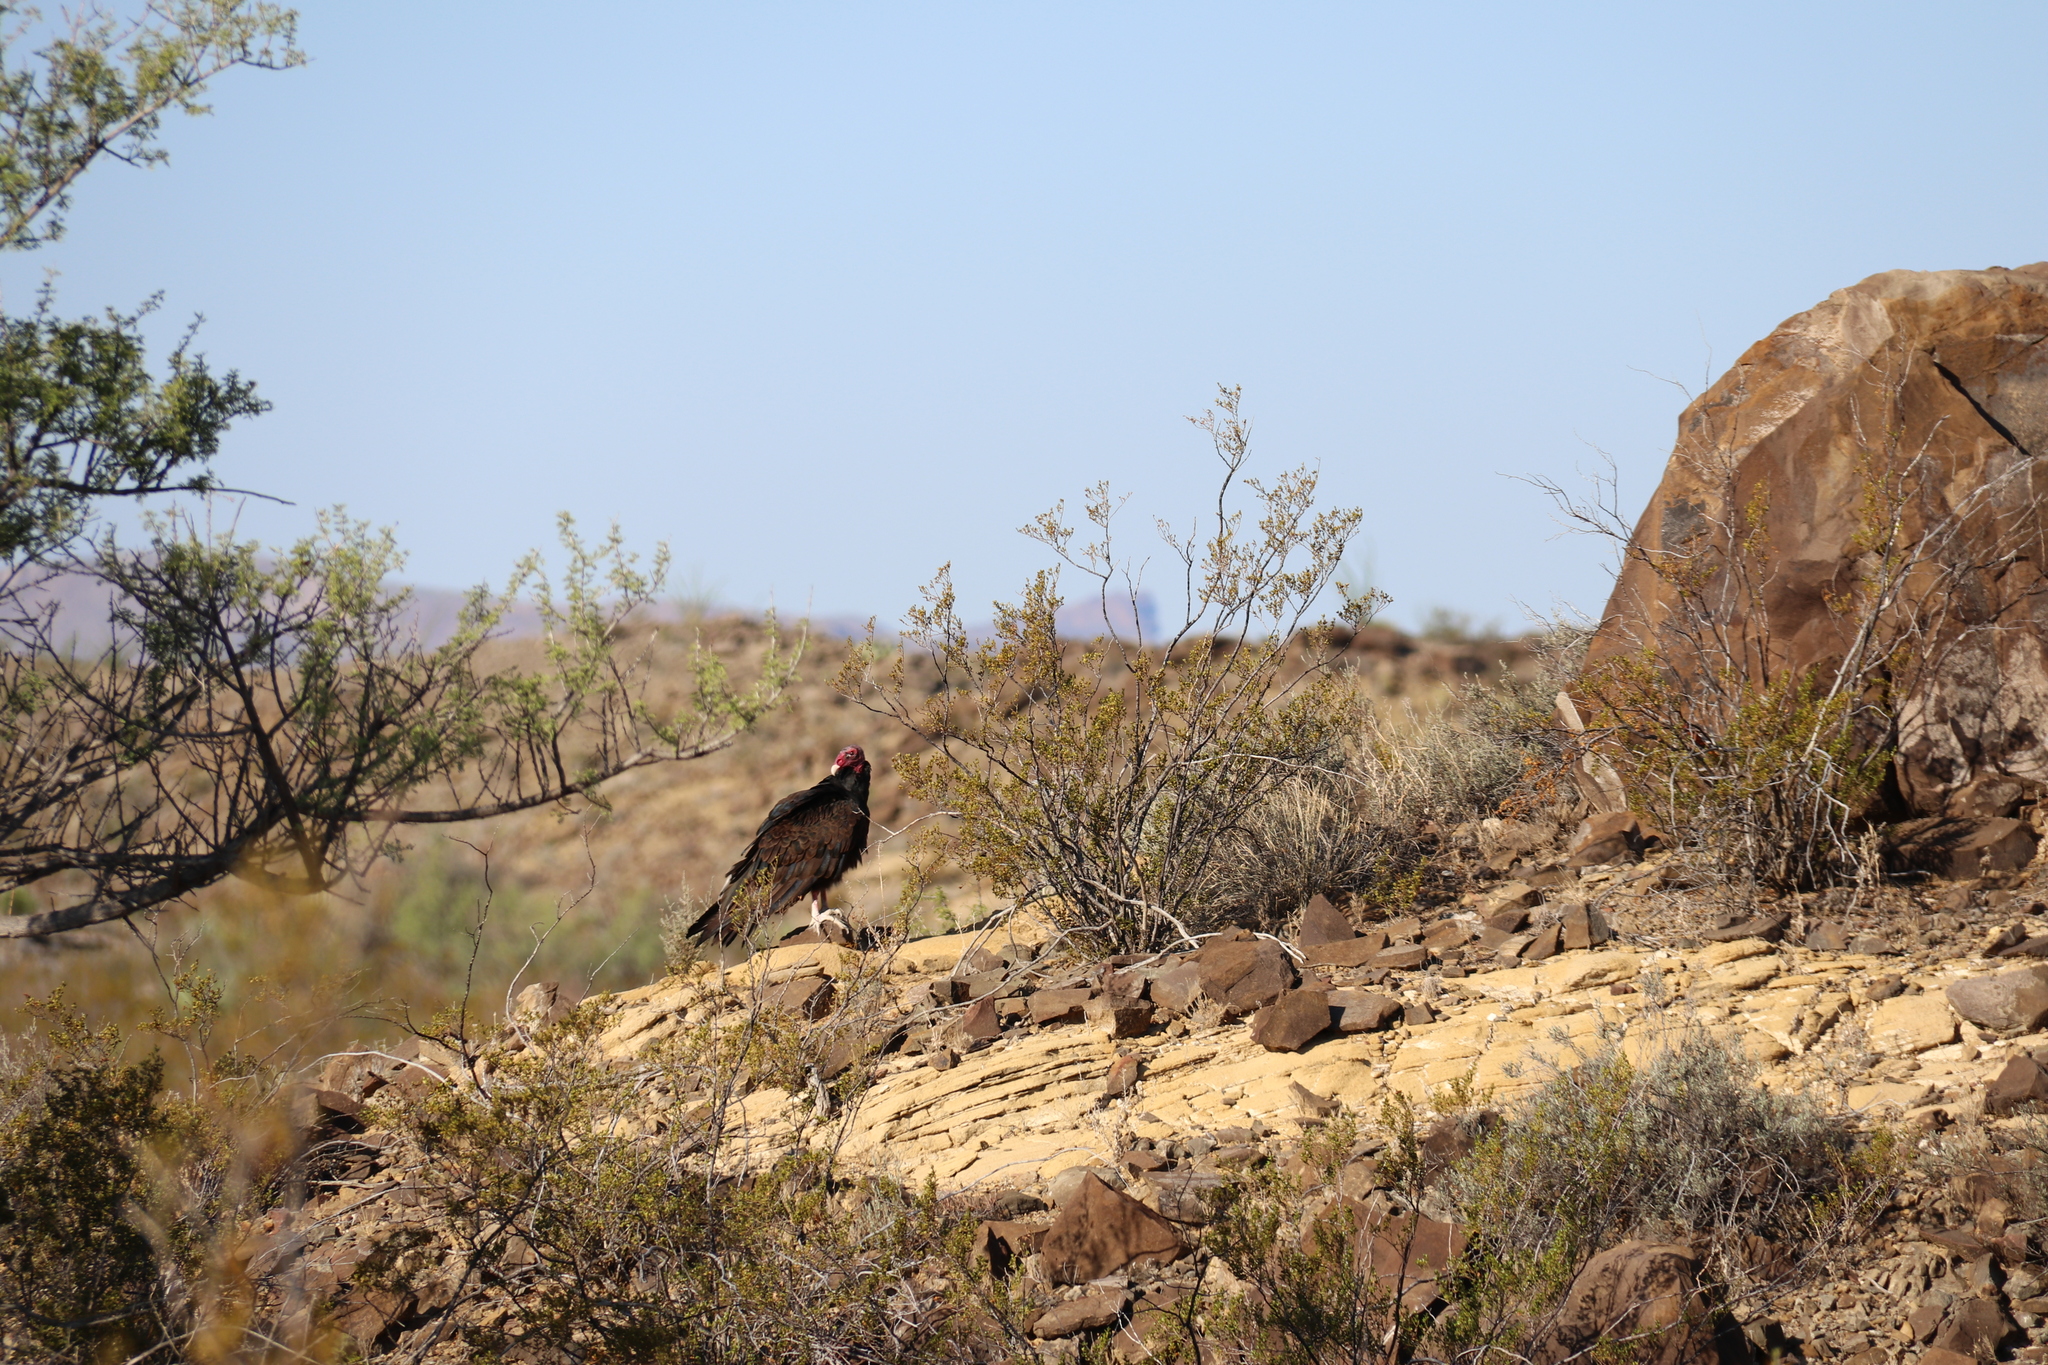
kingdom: Animalia
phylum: Chordata
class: Aves
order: Accipitriformes
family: Cathartidae
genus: Cathartes
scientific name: Cathartes aura
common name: Turkey vulture
